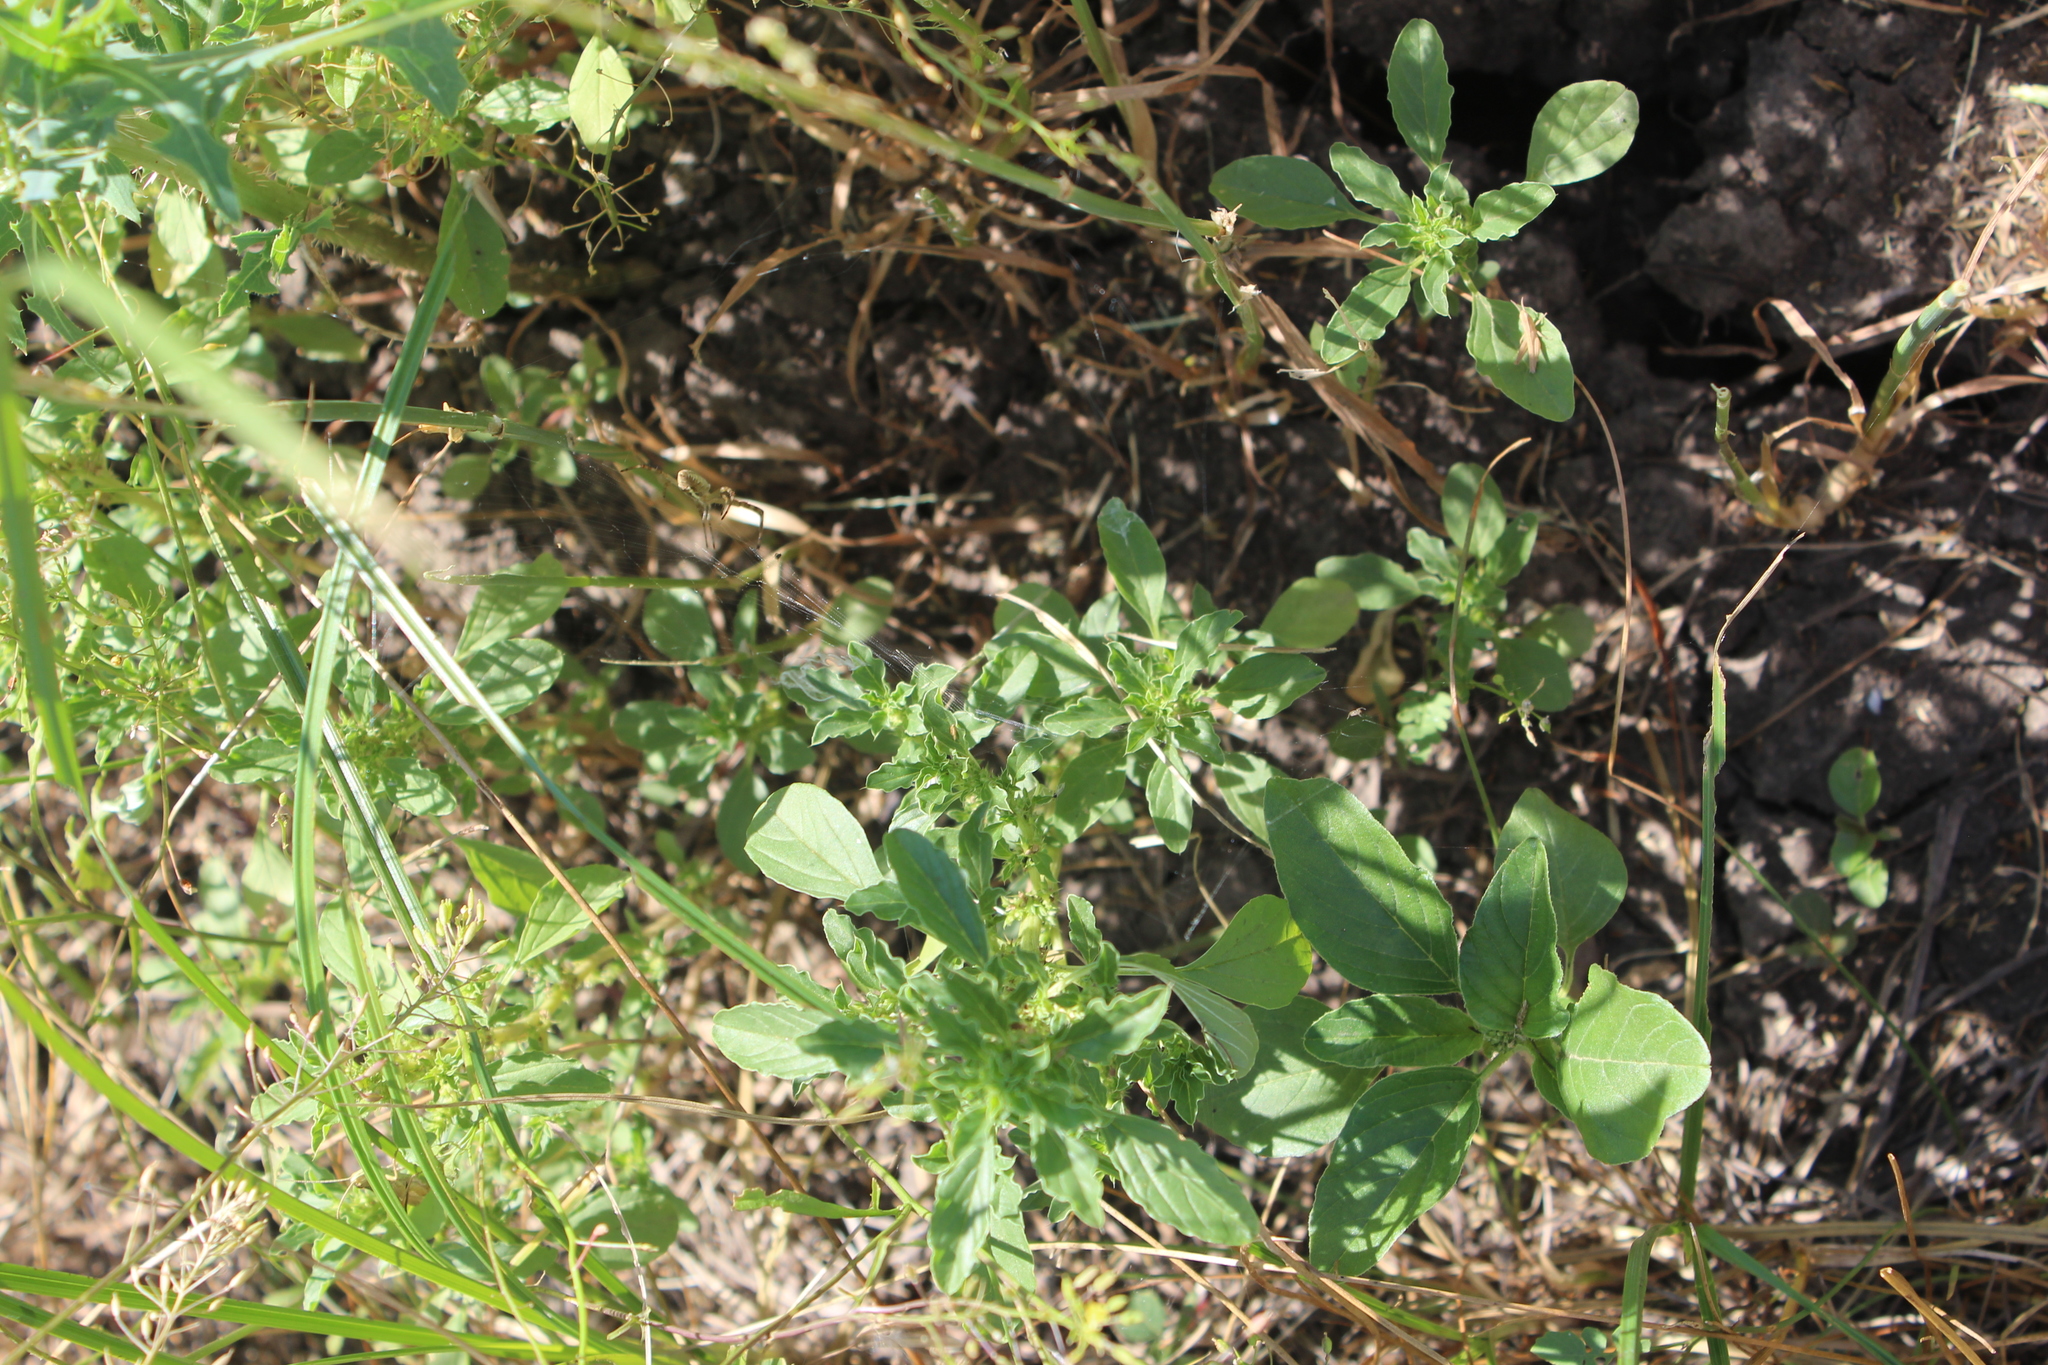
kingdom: Plantae
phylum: Tracheophyta
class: Magnoliopsida
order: Caryophyllales
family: Amaranthaceae
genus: Amaranthus
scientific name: Amaranthus albus
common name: White pigweed
